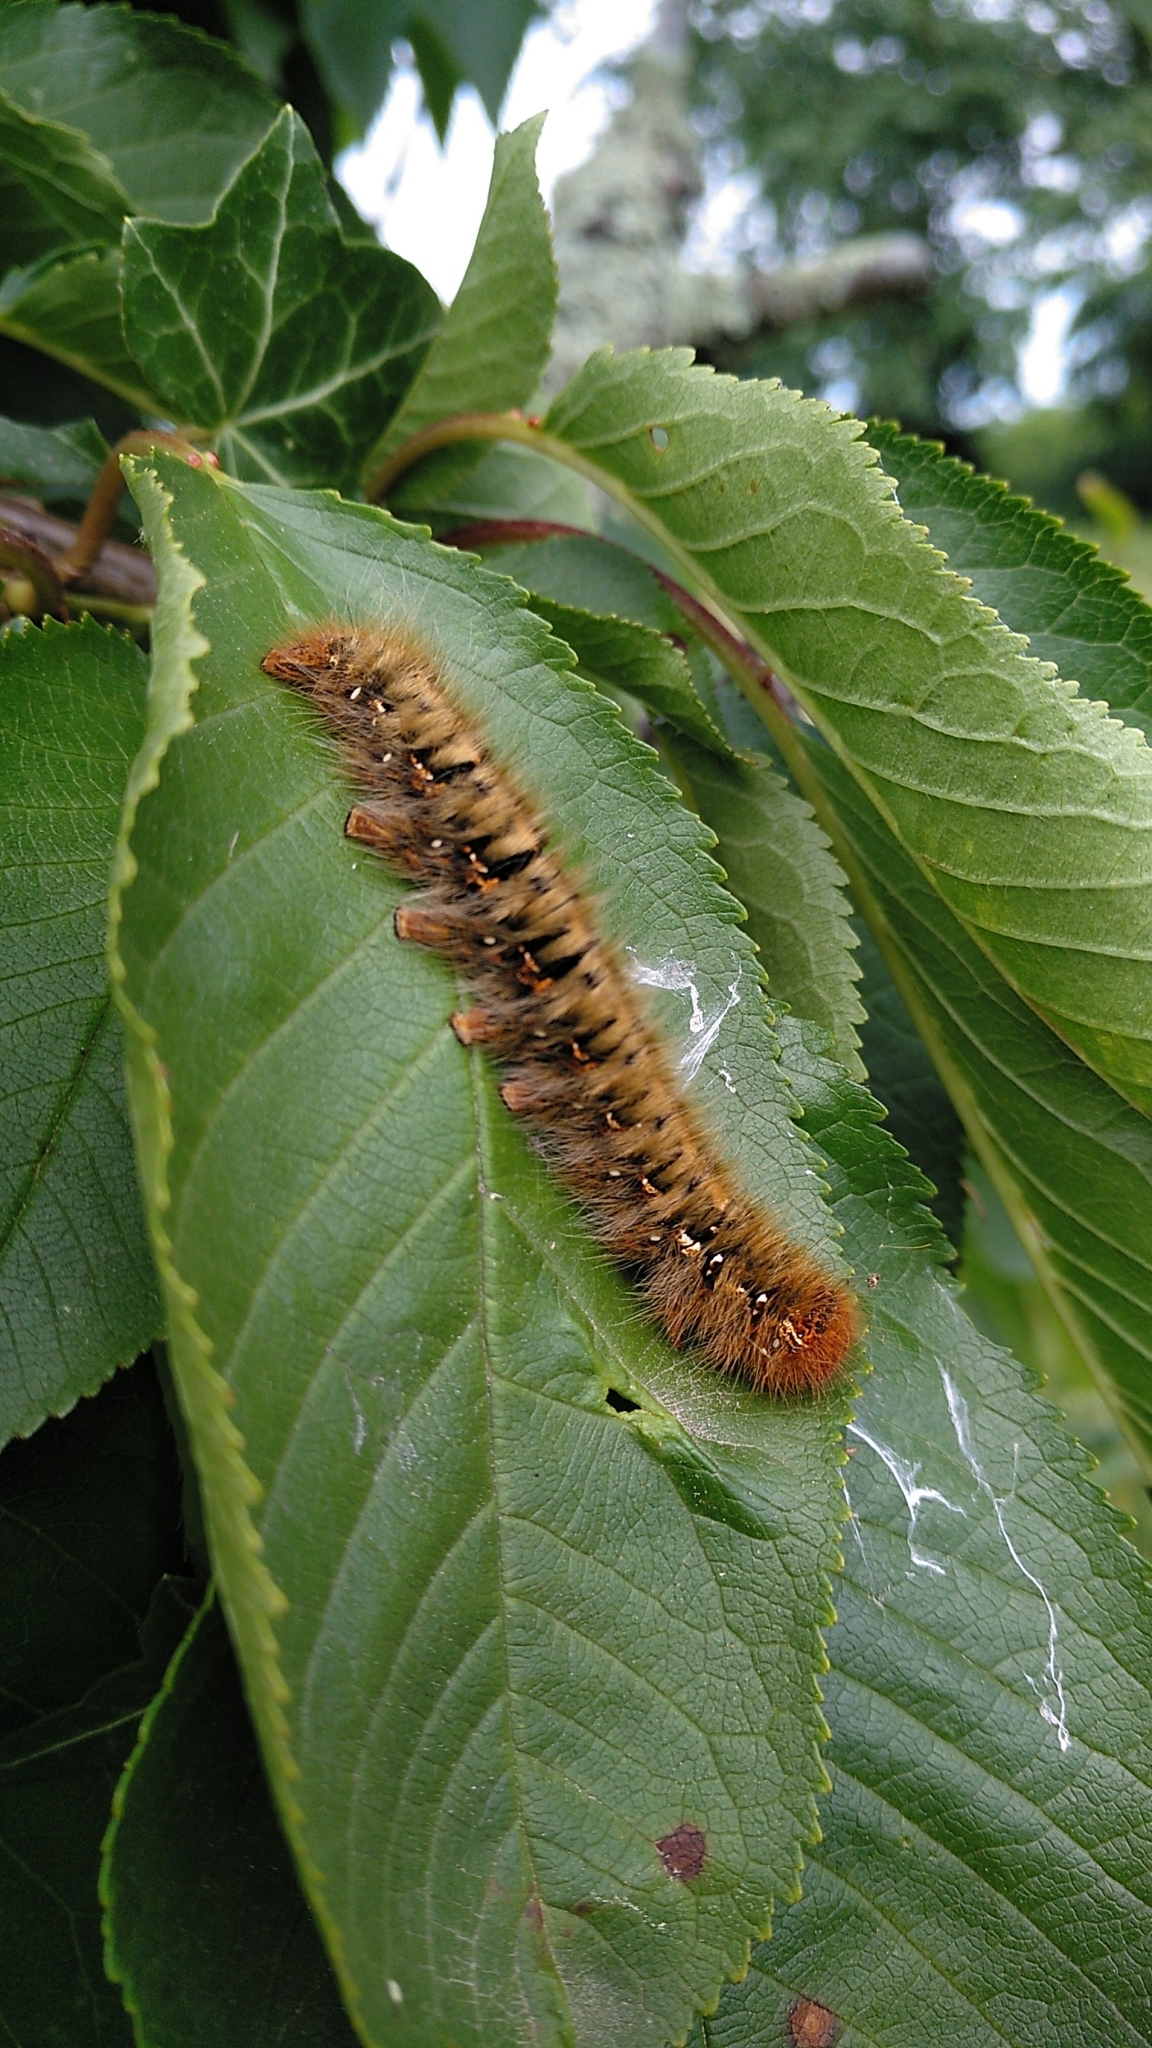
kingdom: Animalia
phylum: Arthropoda
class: Insecta
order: Lepidoptera
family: Lasiocampidae
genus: Lasiocampa
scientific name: Lasiocampa quercus
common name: Oak eggar
